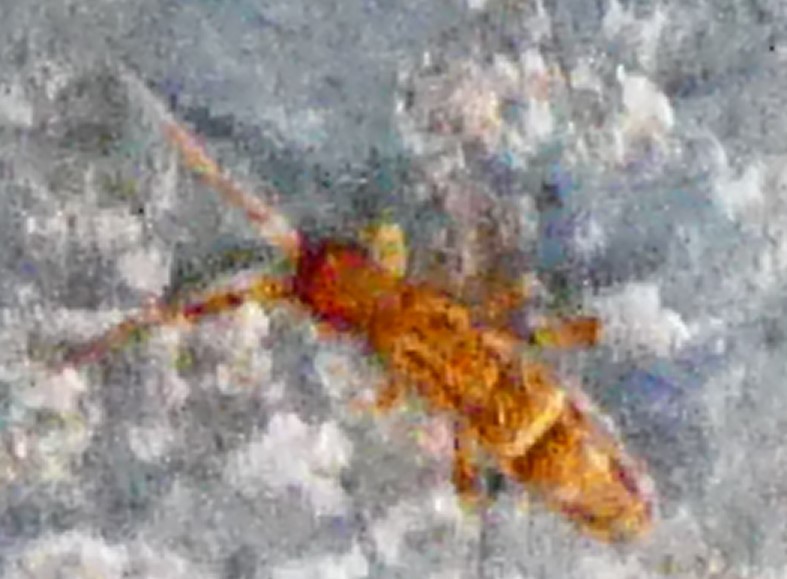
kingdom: Animalia
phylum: Arthropoda
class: Collembola
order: Entomobryomorpha
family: Orchesellidae
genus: Orchesella
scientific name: Orchesella cincta
